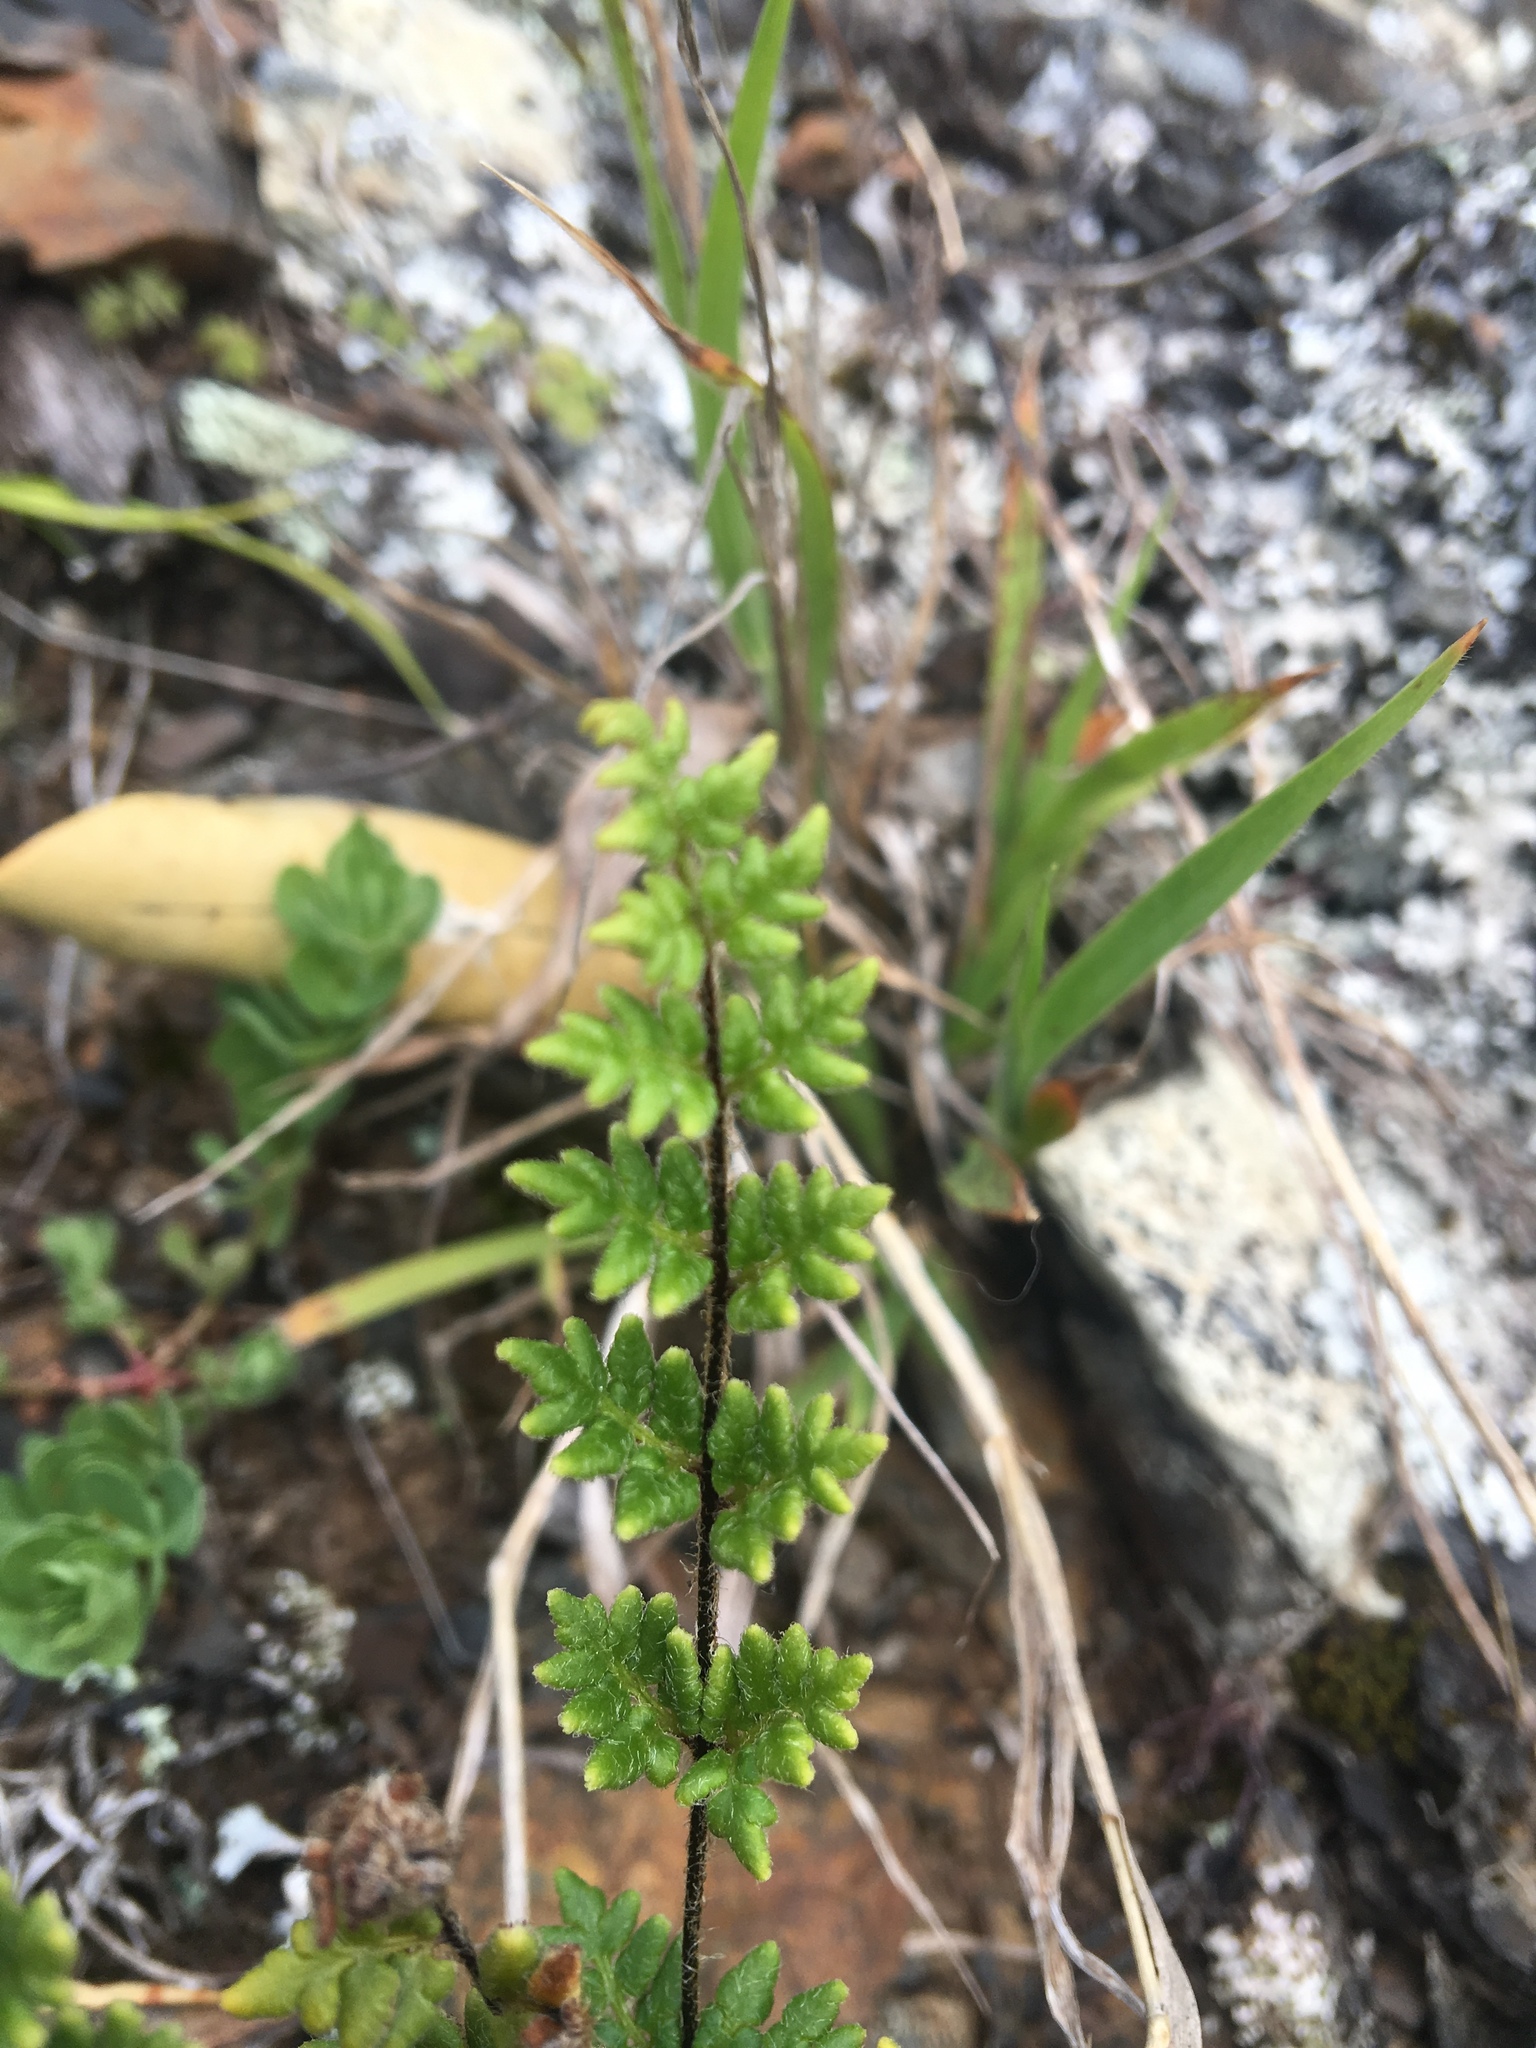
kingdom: Plantae
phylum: Tracheophyta
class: Polypodiopsida
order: Polypodiales
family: Pteridaceae
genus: Cheilanthes
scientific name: Cheilanthes distans
